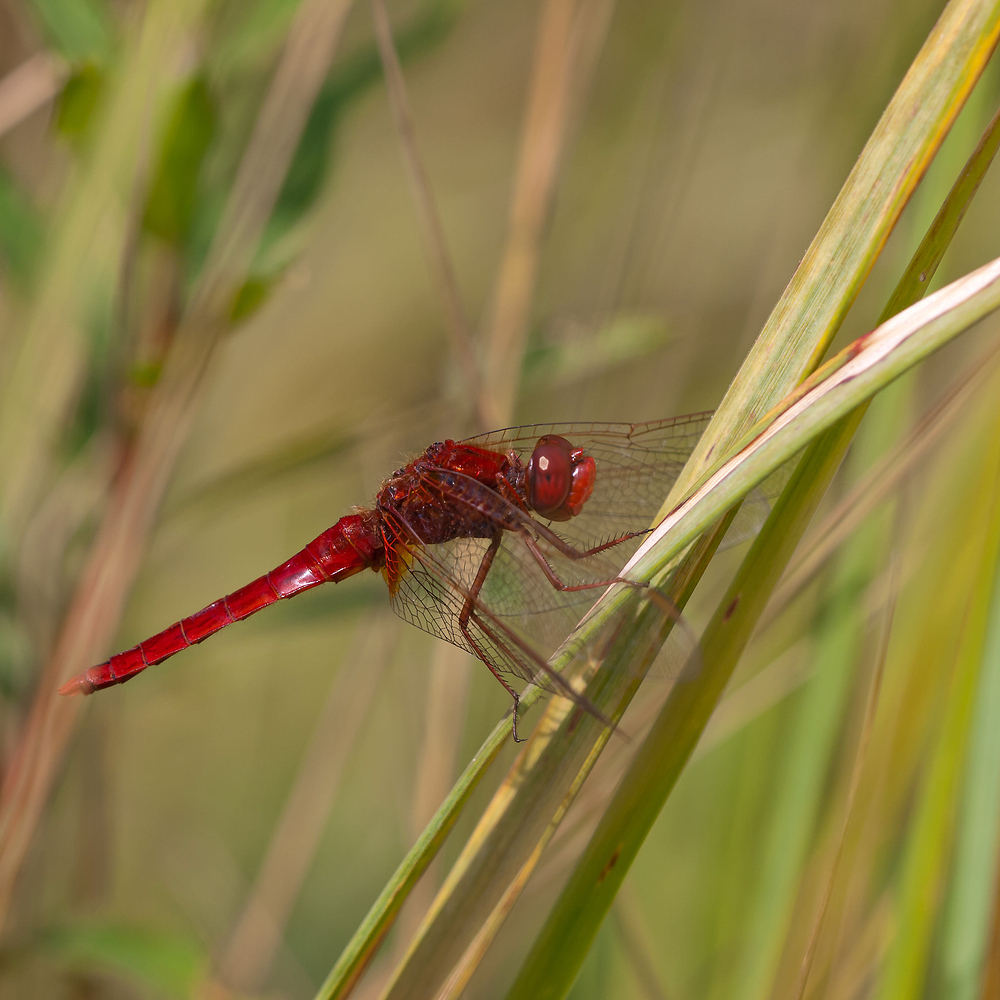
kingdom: Animalia
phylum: Arthropoda
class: Insecta
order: Odonata
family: Libellulidae
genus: Crocothemis
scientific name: Crocothemis erythraea
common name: Scarlet dragonfly
